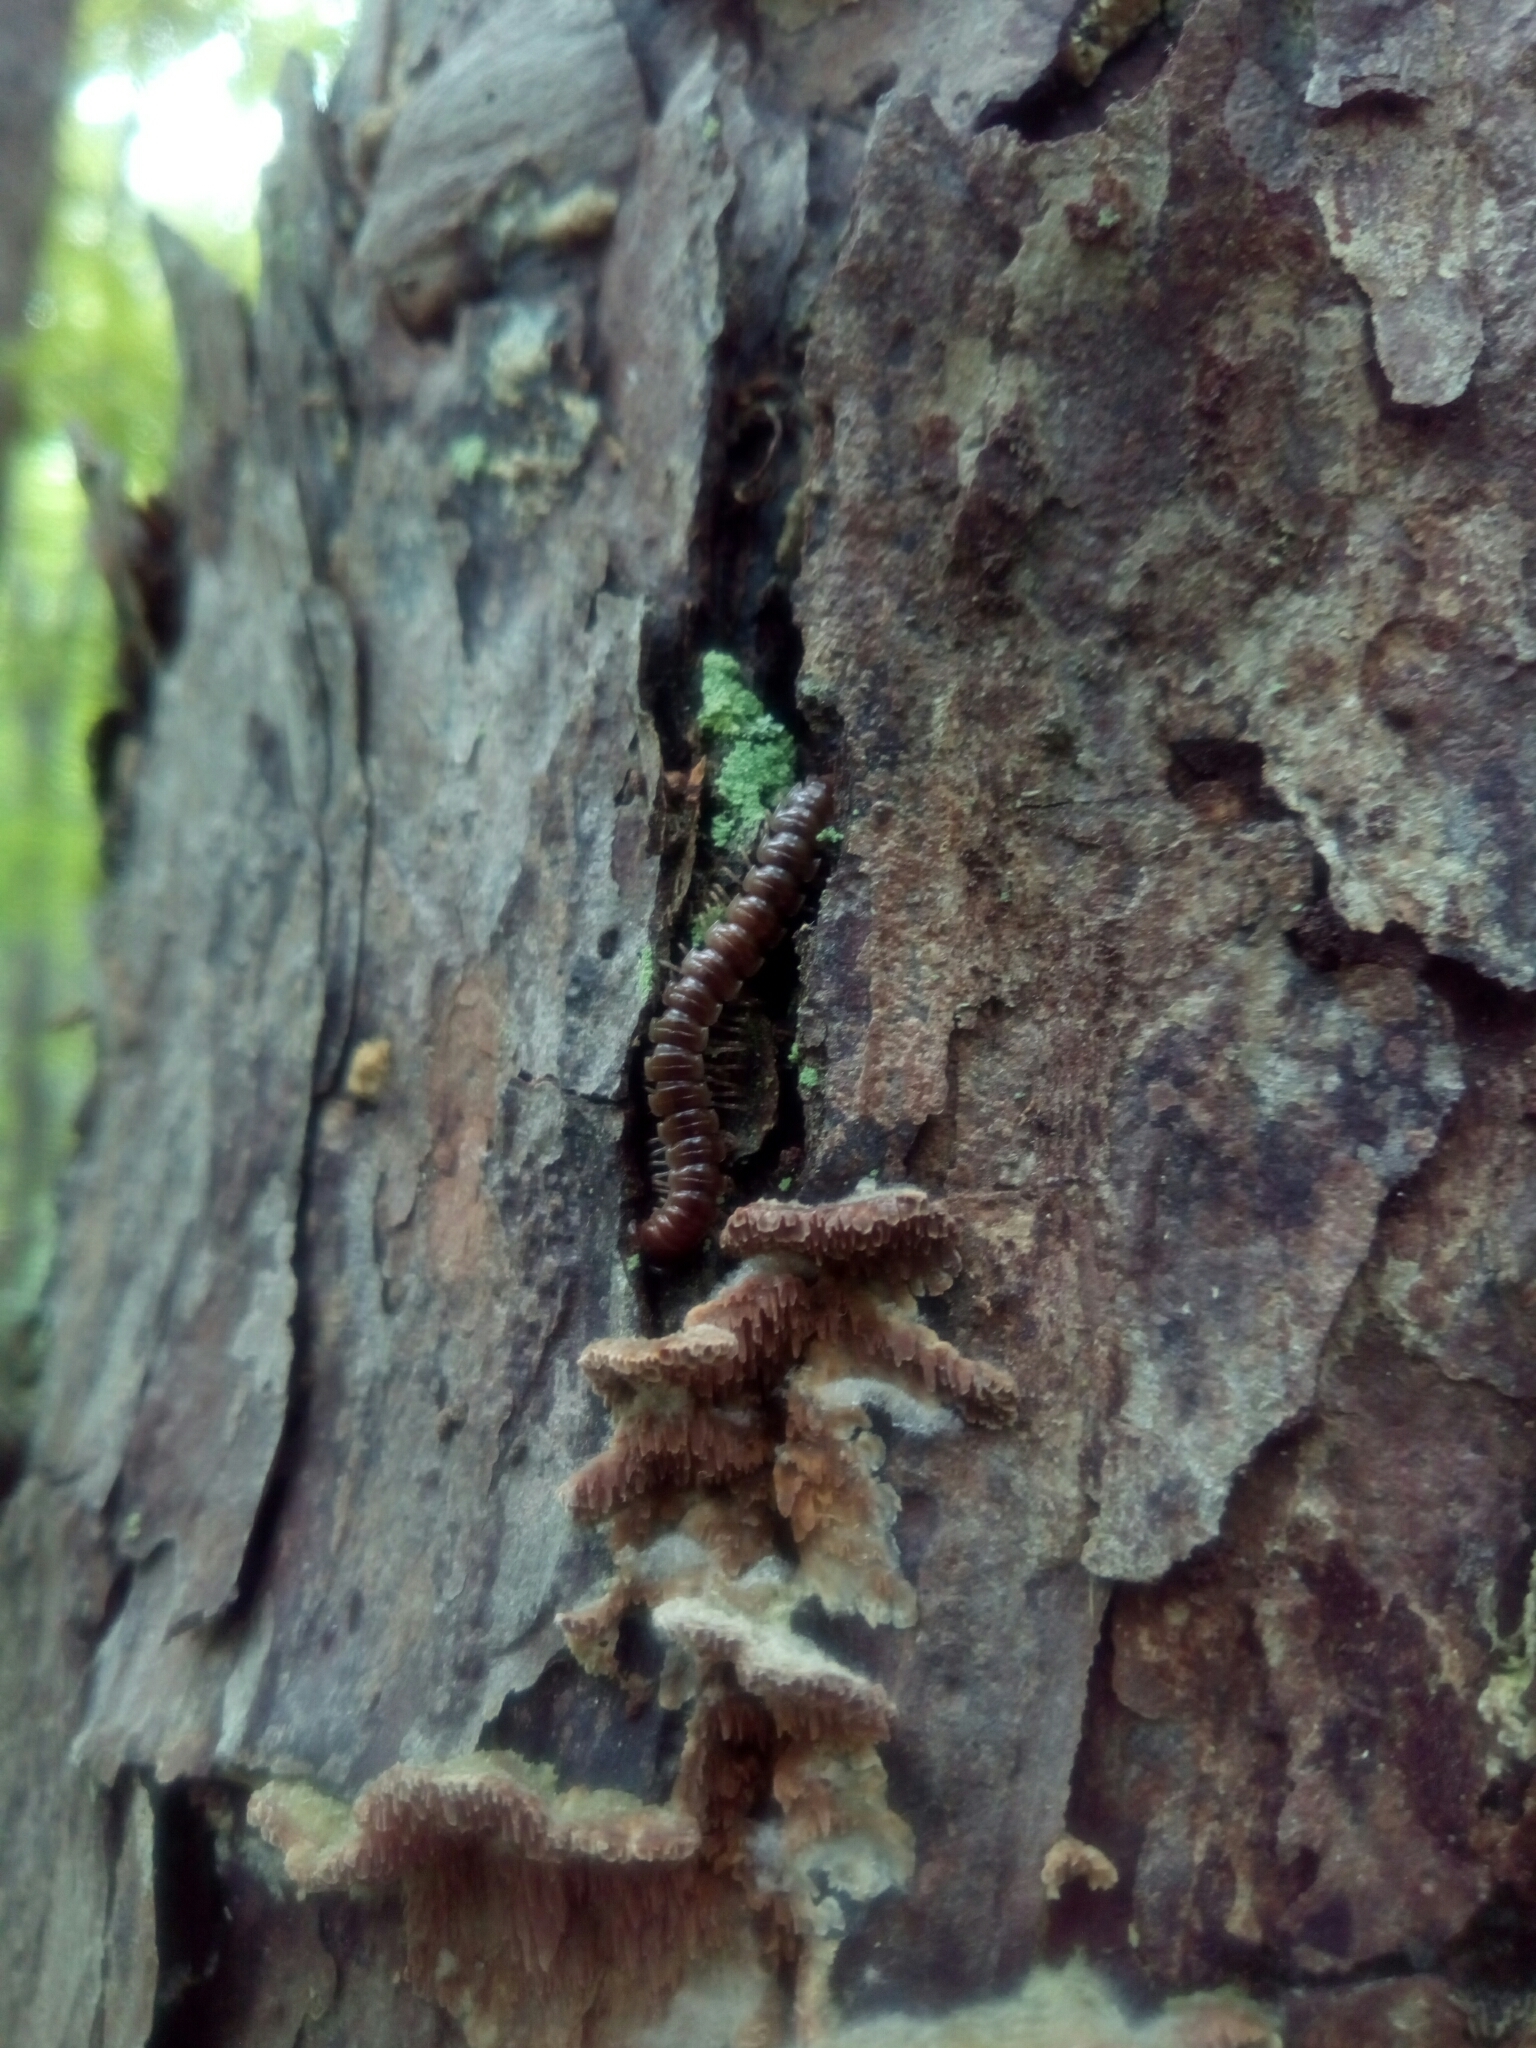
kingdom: Animalia
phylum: Arthropoda
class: Diplopoda
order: Polydesmida
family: Paradoxosomatidae
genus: Oxidus
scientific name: Oxidus gracilis
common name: Greenhouse millipede
